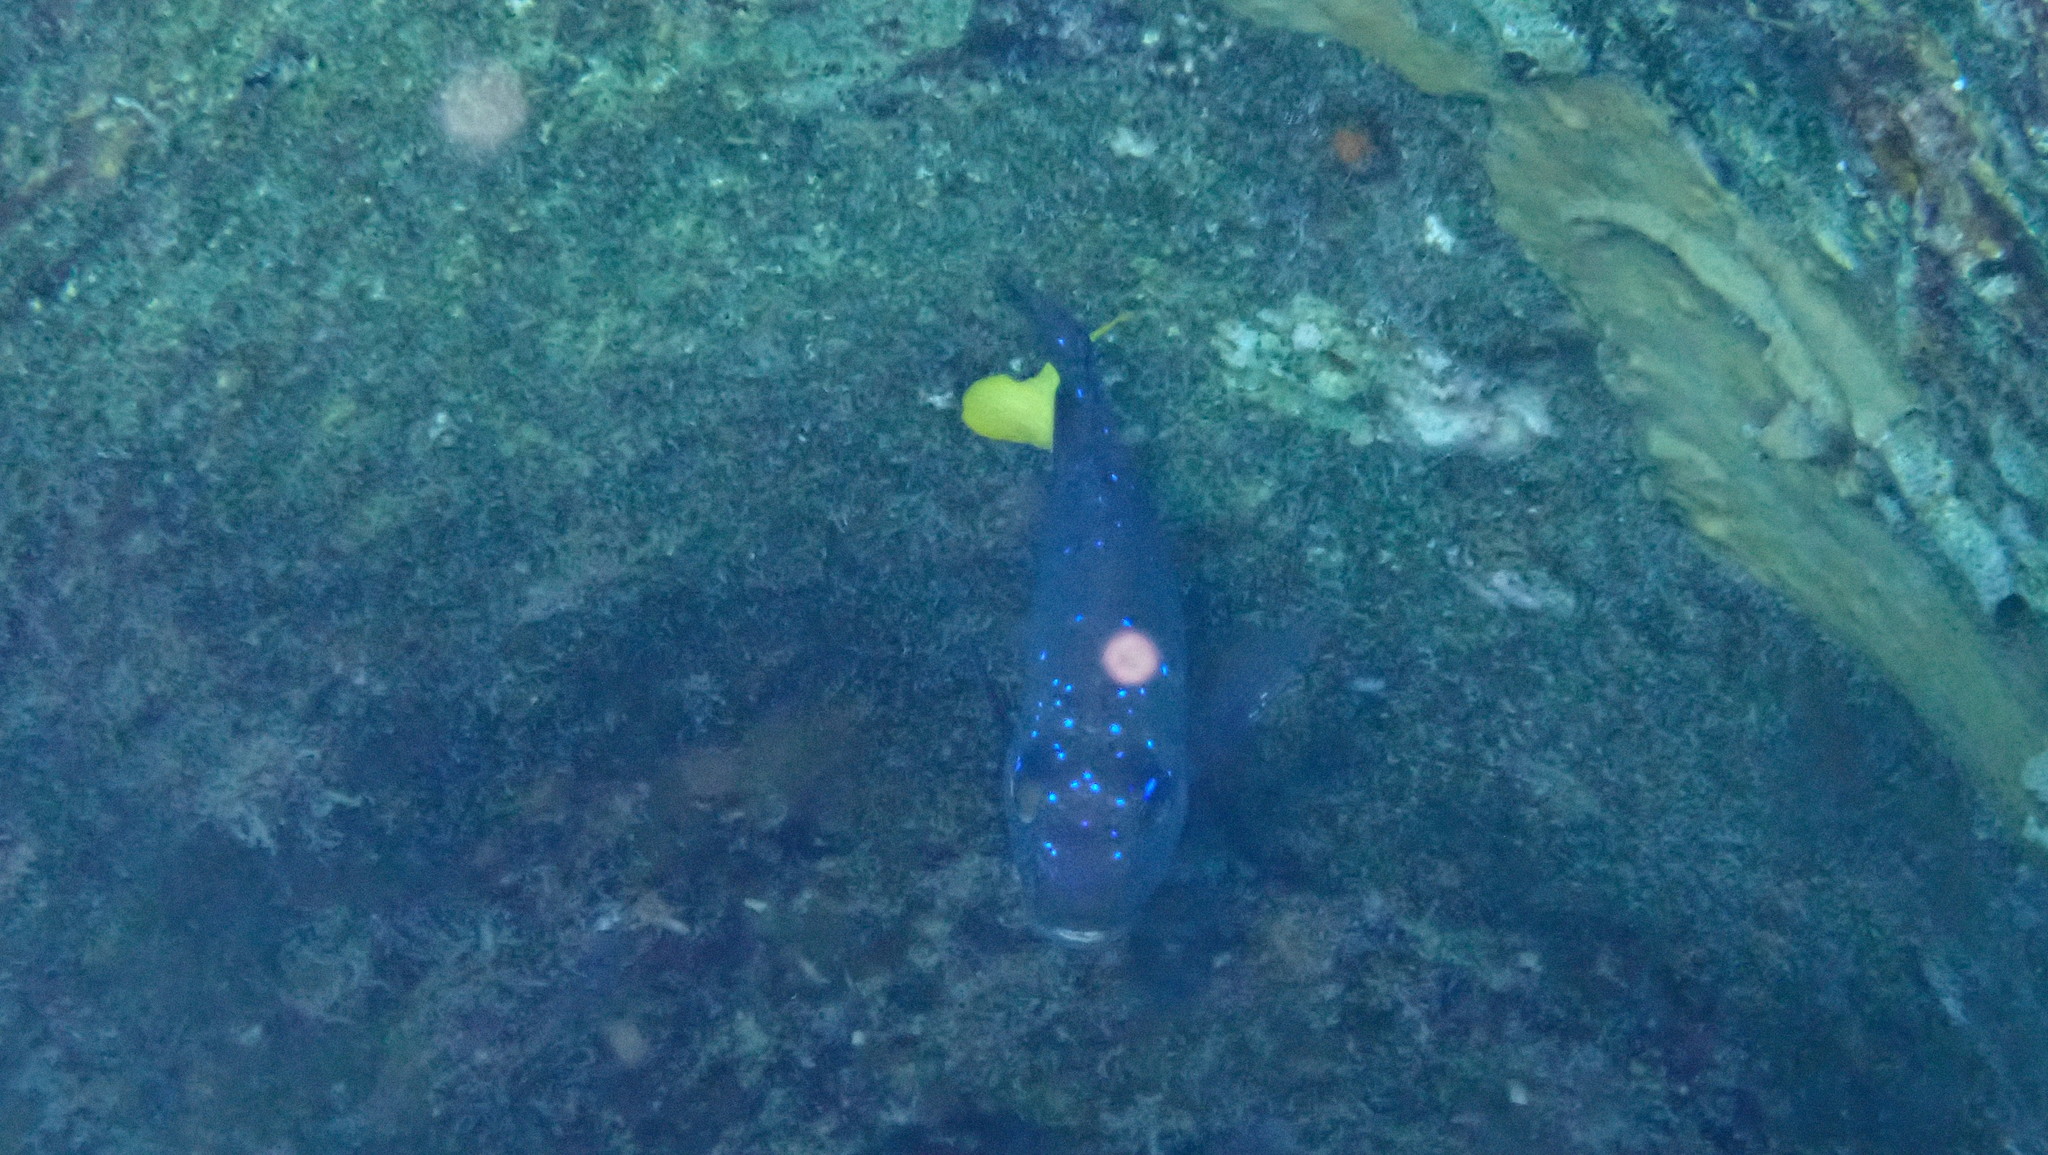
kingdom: Animalia
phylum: Chordata
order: Perciformes
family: Pomacentridae
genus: Microspathodon
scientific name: Microspathodon chrysurus
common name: Yellowtail damselfish
